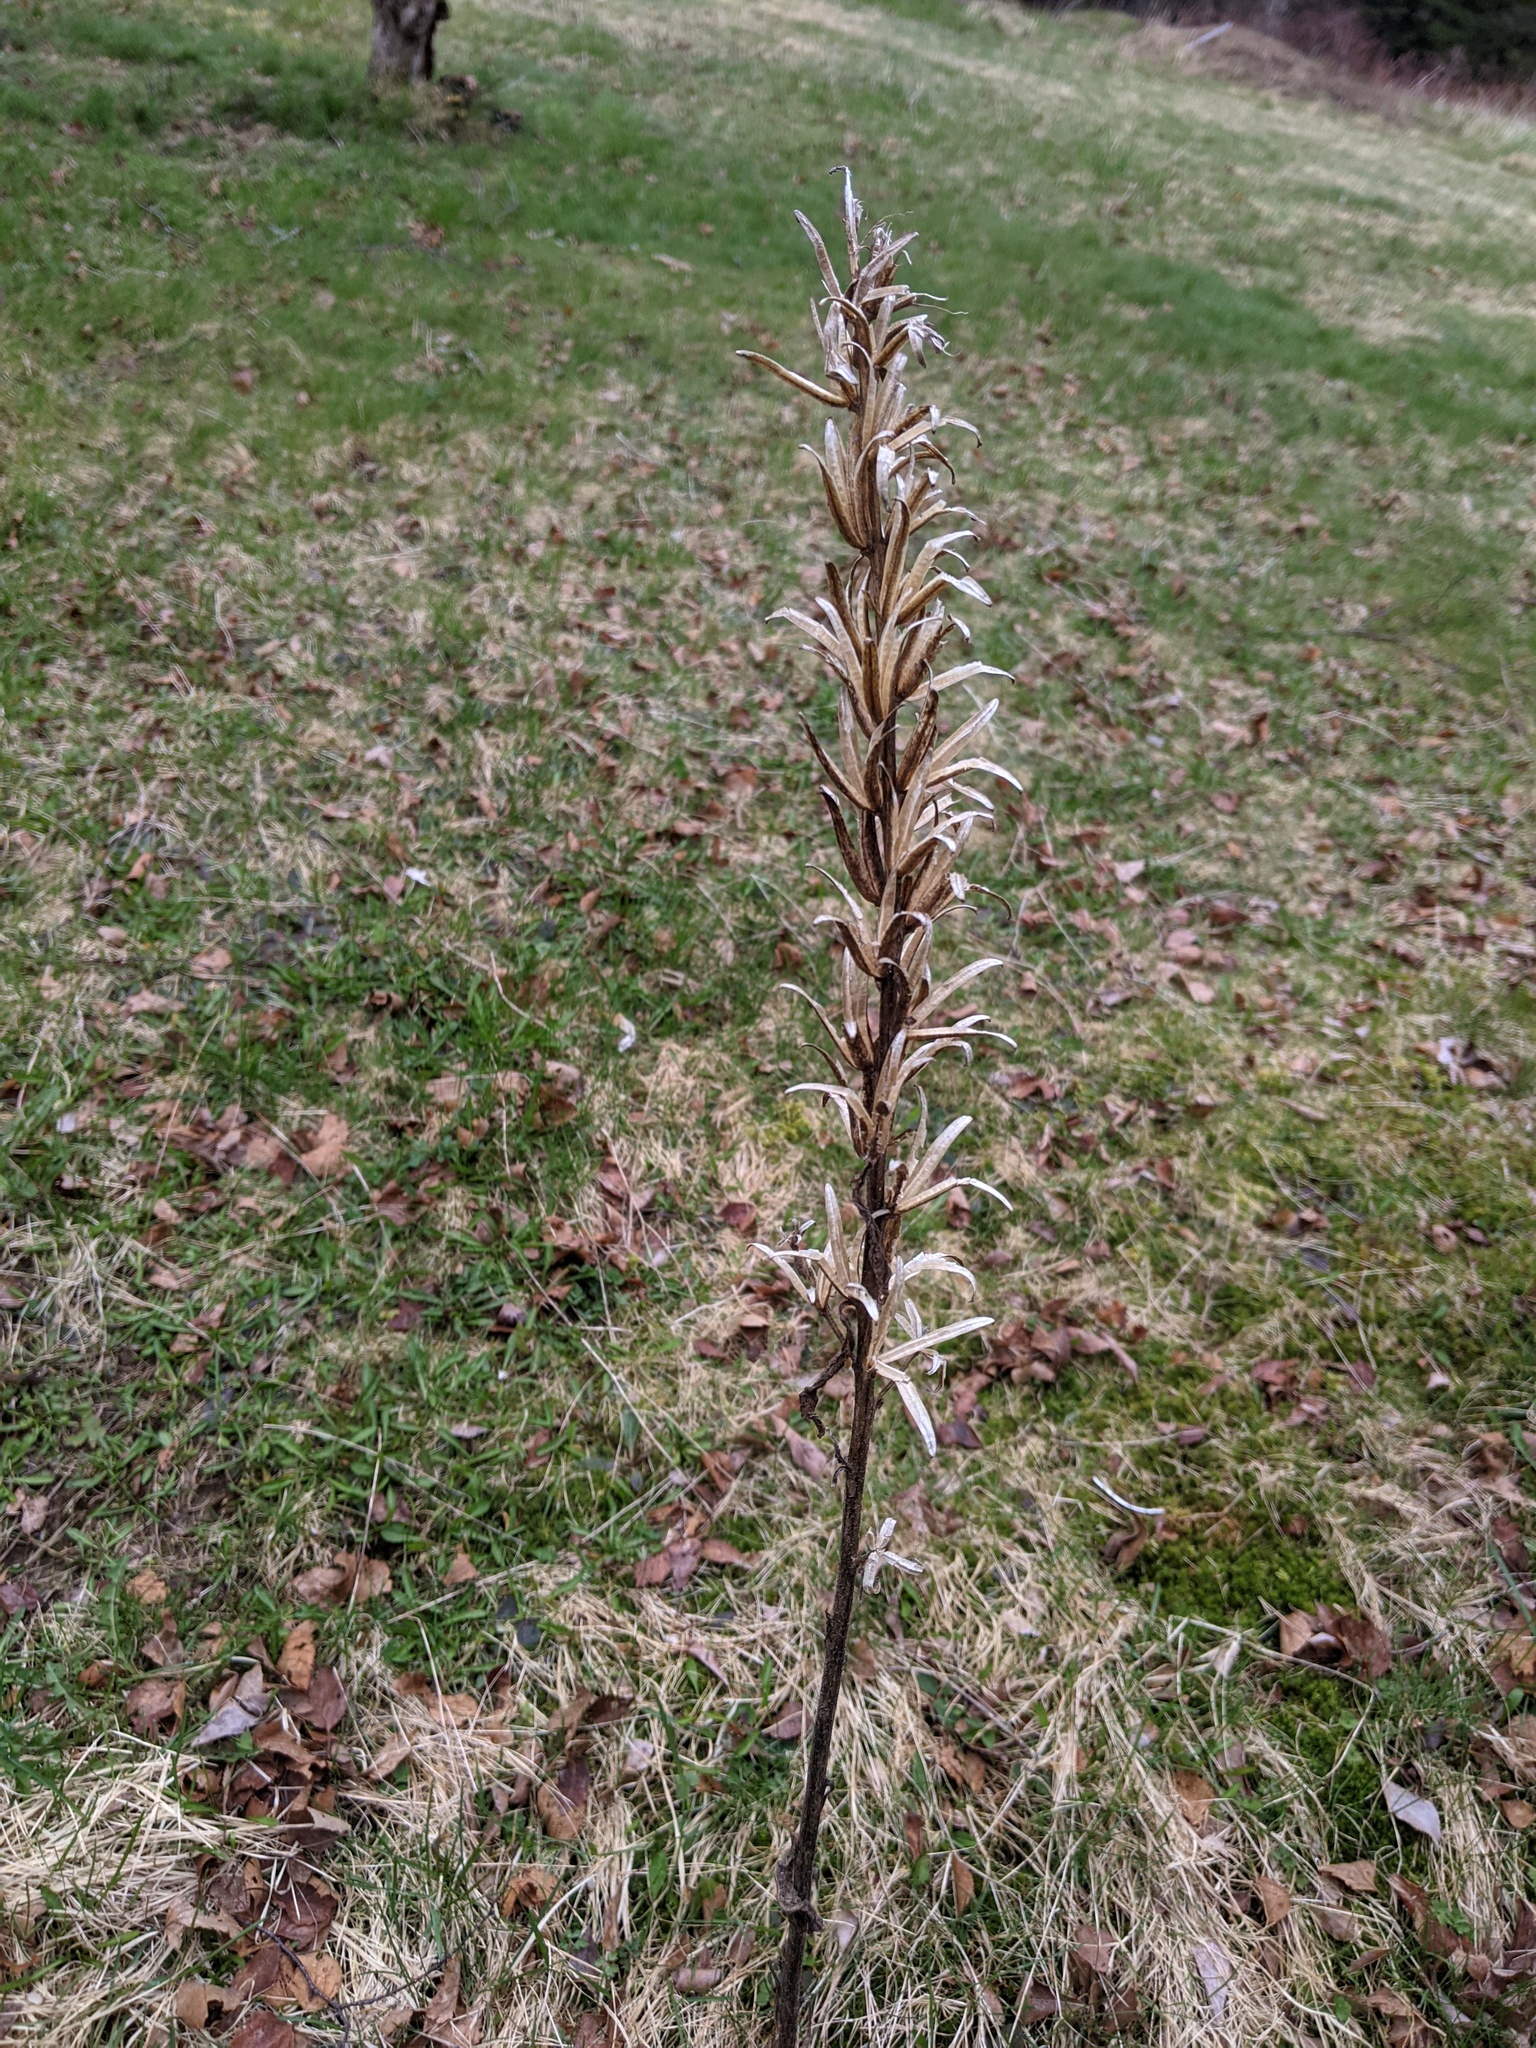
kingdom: Plantae
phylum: Tracheophyta
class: Magnoliopsida
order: Myrtales
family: Onagraceae
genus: Oenothera
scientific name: Oenothera biennis
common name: Common evening-primrose
